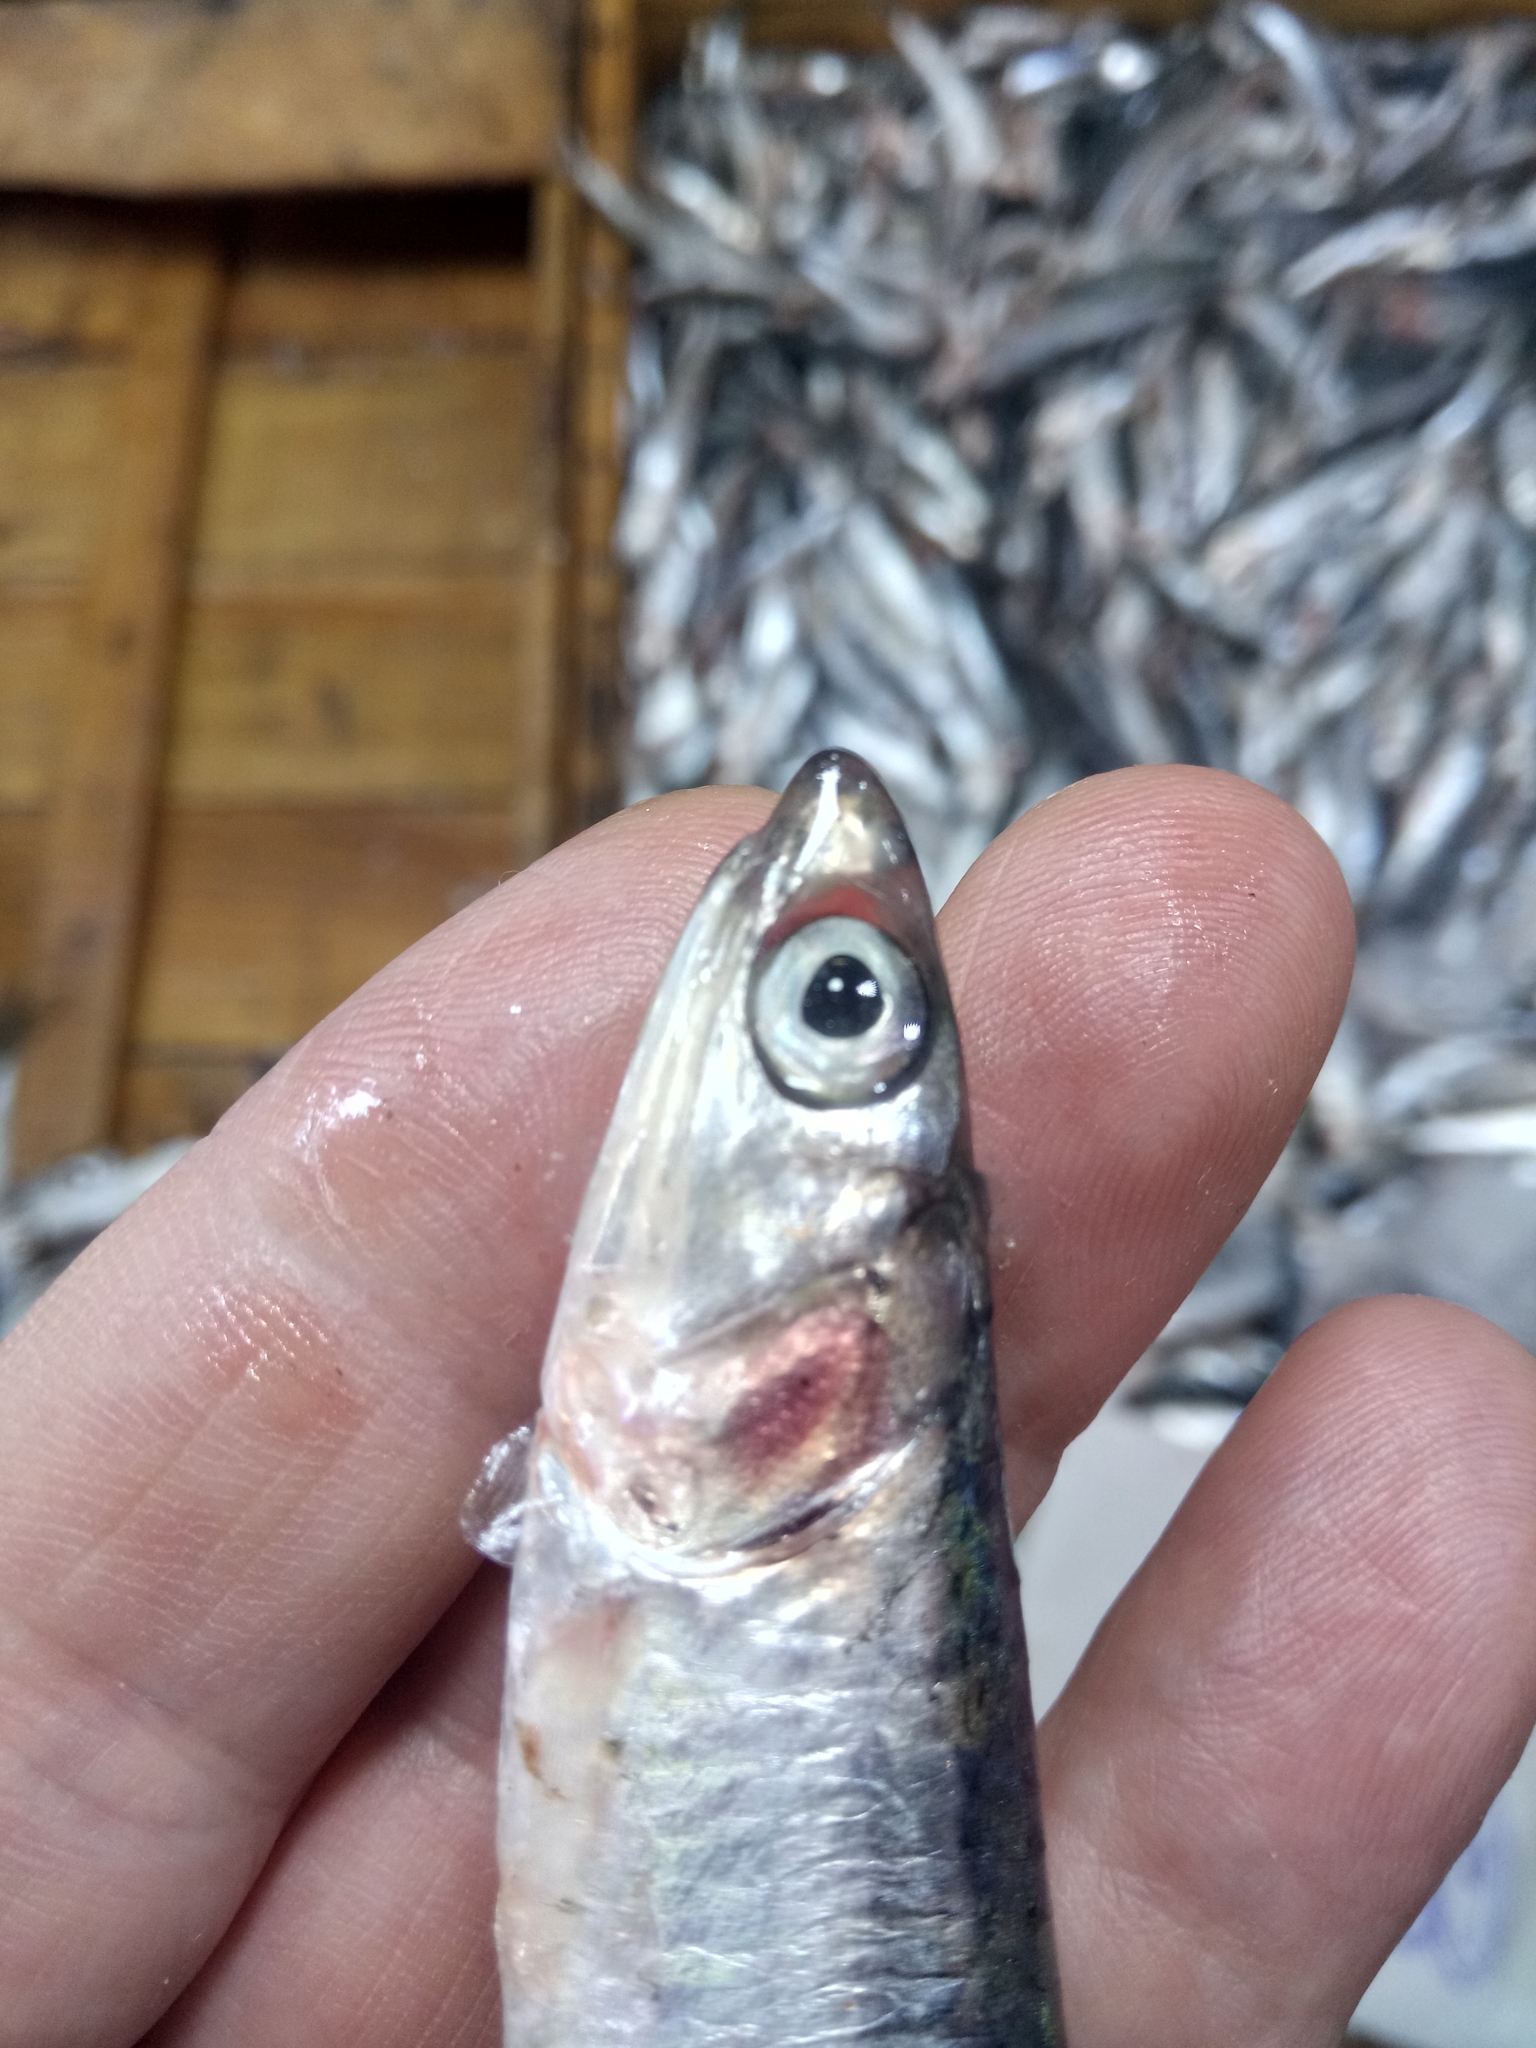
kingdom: Animalia
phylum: Chordata
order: Clupeiformes
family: Engraulidae
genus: Engraulis
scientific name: Engraulis encrasicolus
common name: European anchovy
